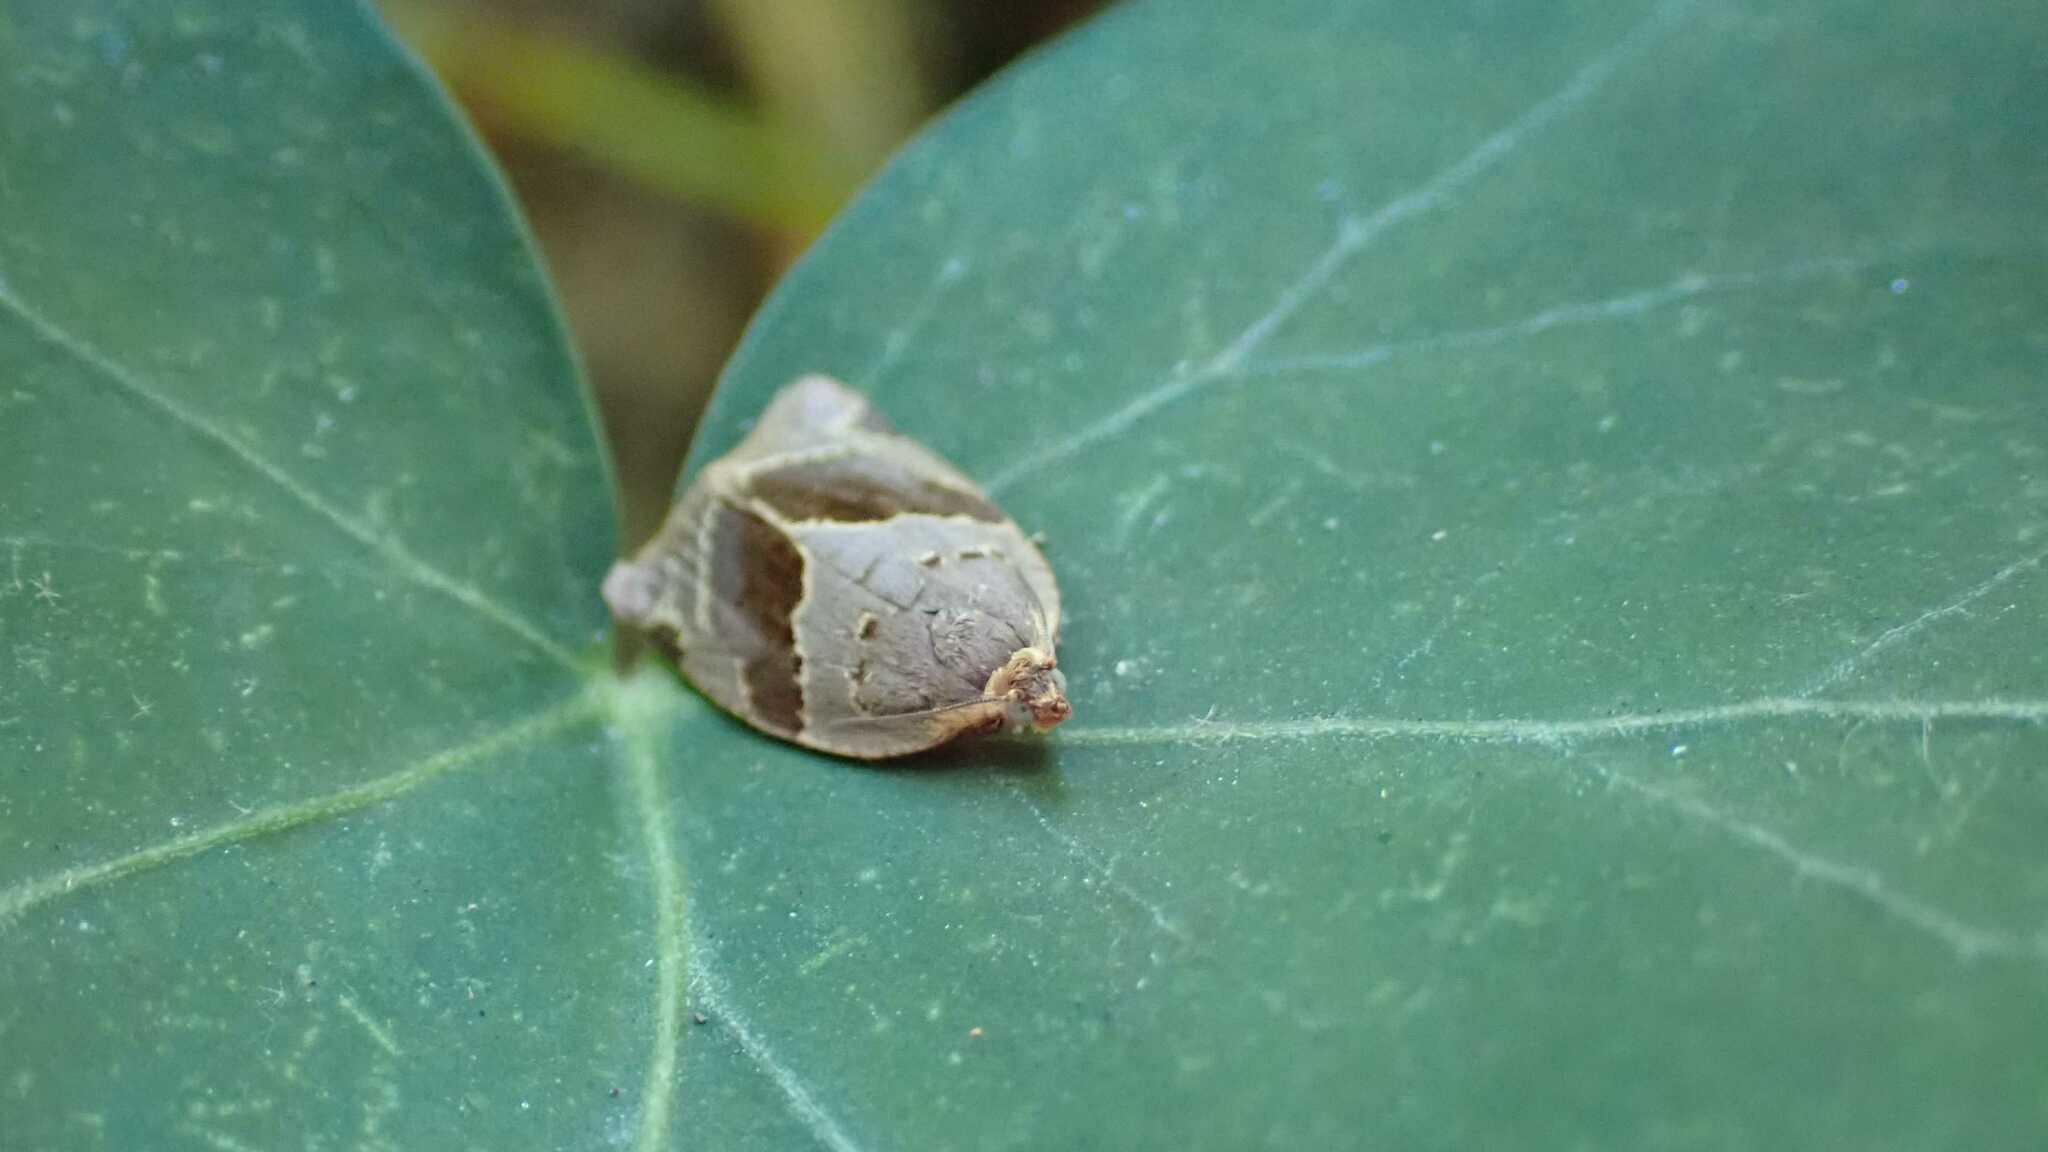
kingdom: Animalia
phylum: Arthropoda
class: Insecta
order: Lepidoptera
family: Tortricidae
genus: Clepsis
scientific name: Clepsis dumicolana
